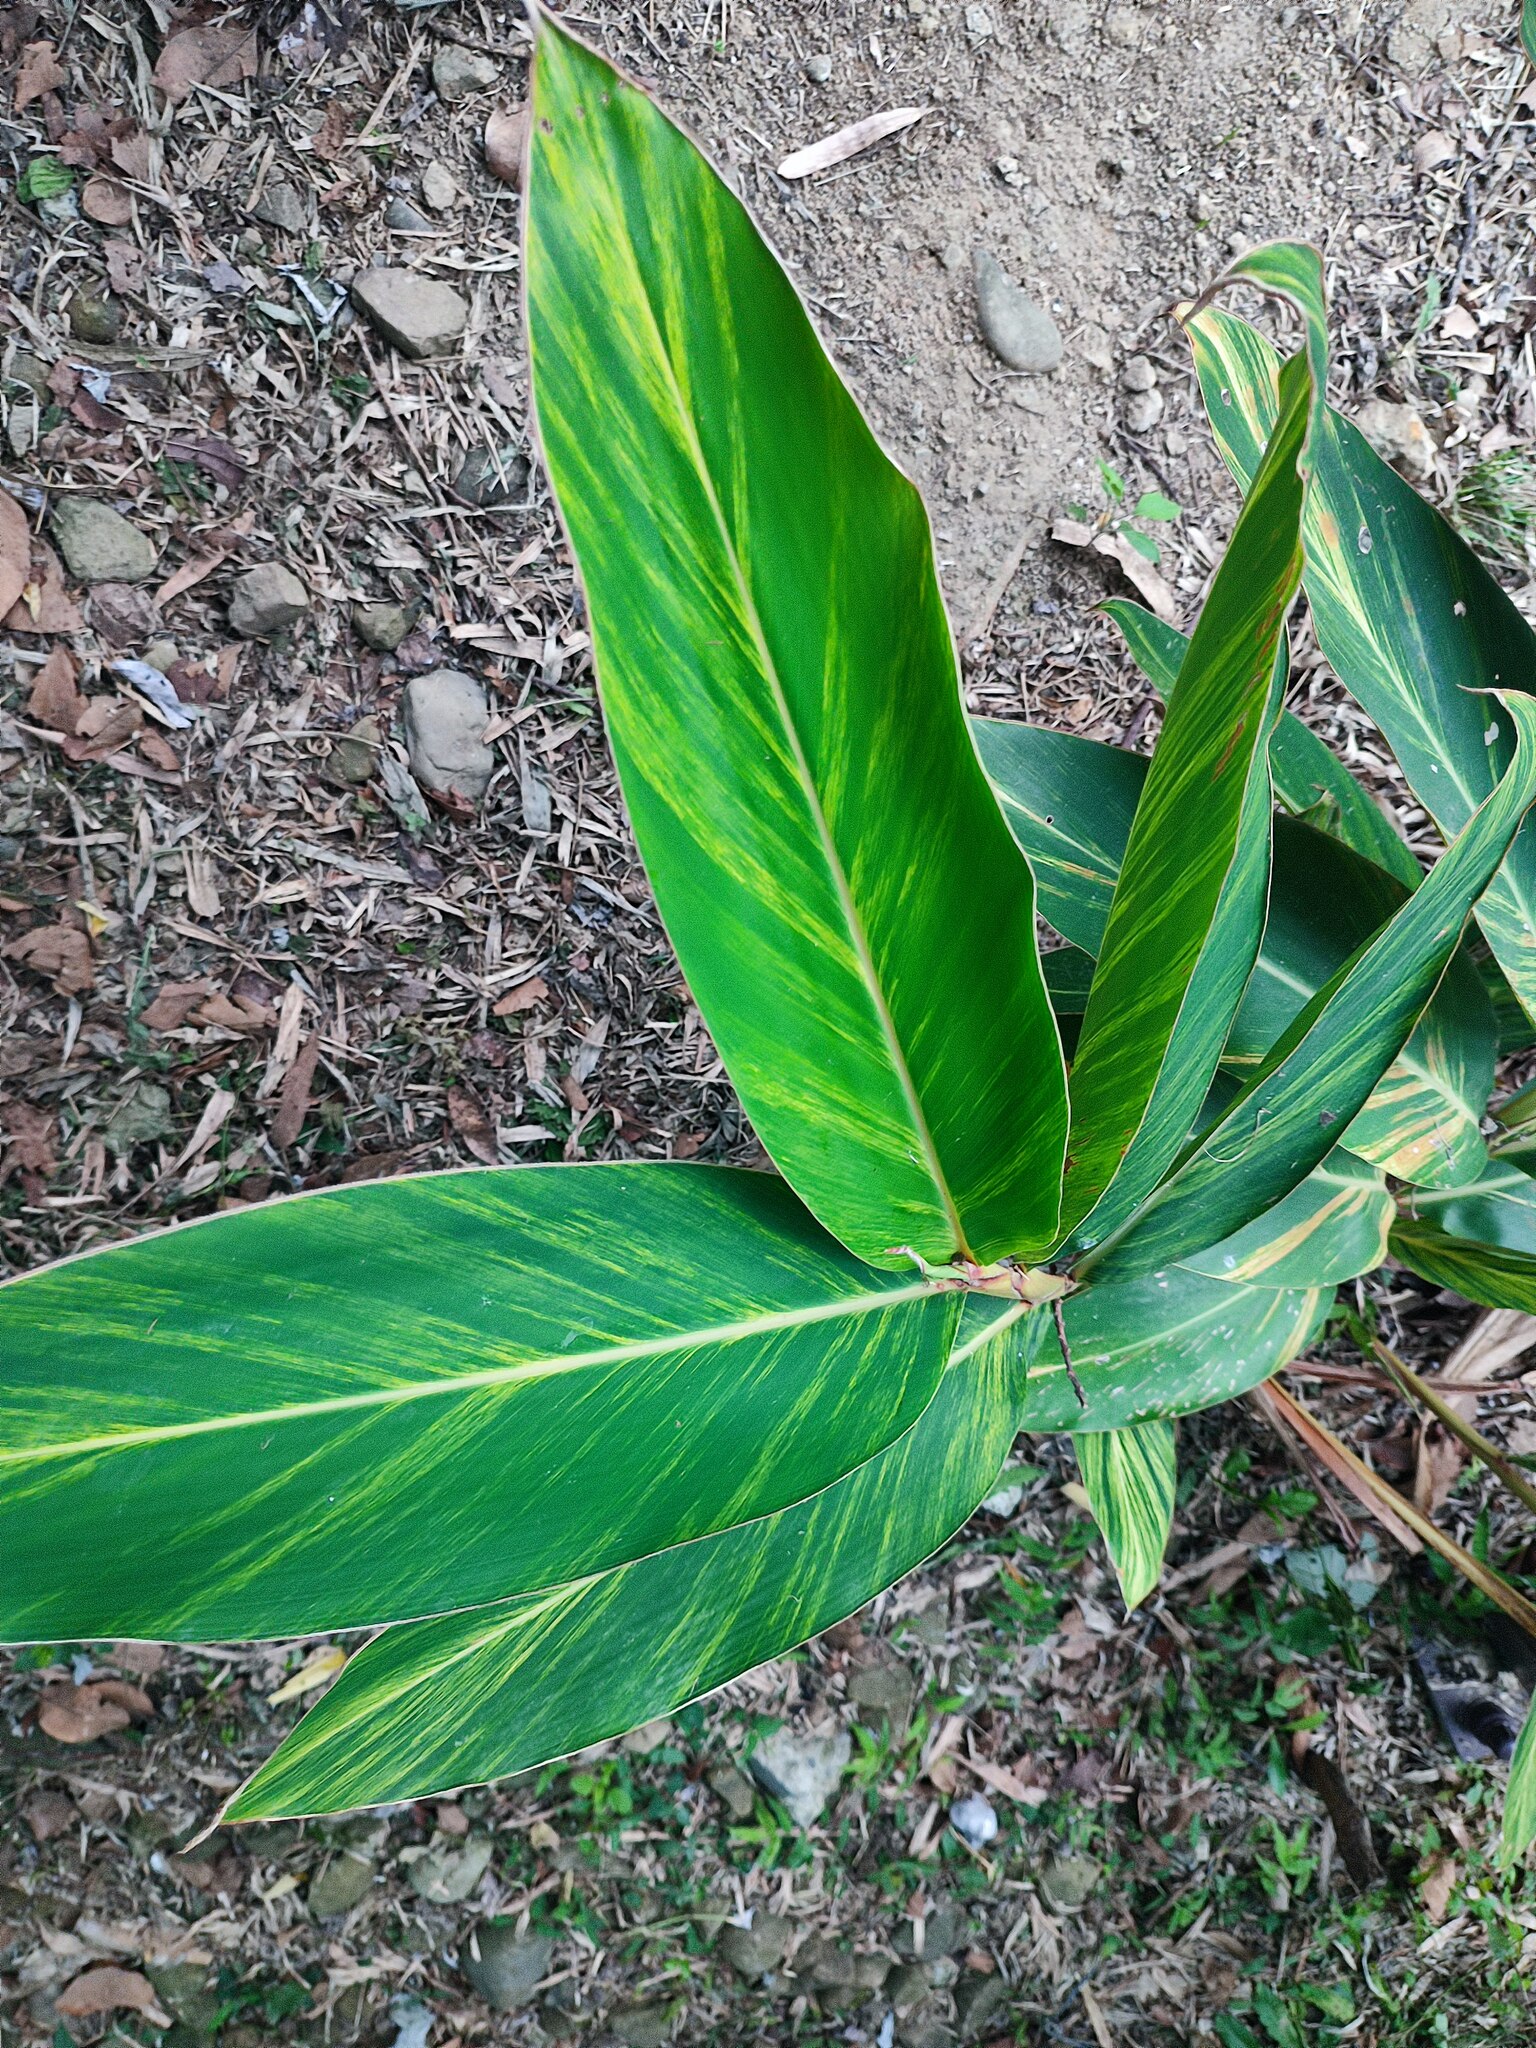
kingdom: Plantae
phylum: Tracheophyta
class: Liliopsida
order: Zingiberales
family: Zingiberaceae
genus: Alpinia
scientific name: Alpinia zerumbet
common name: Shellplant
